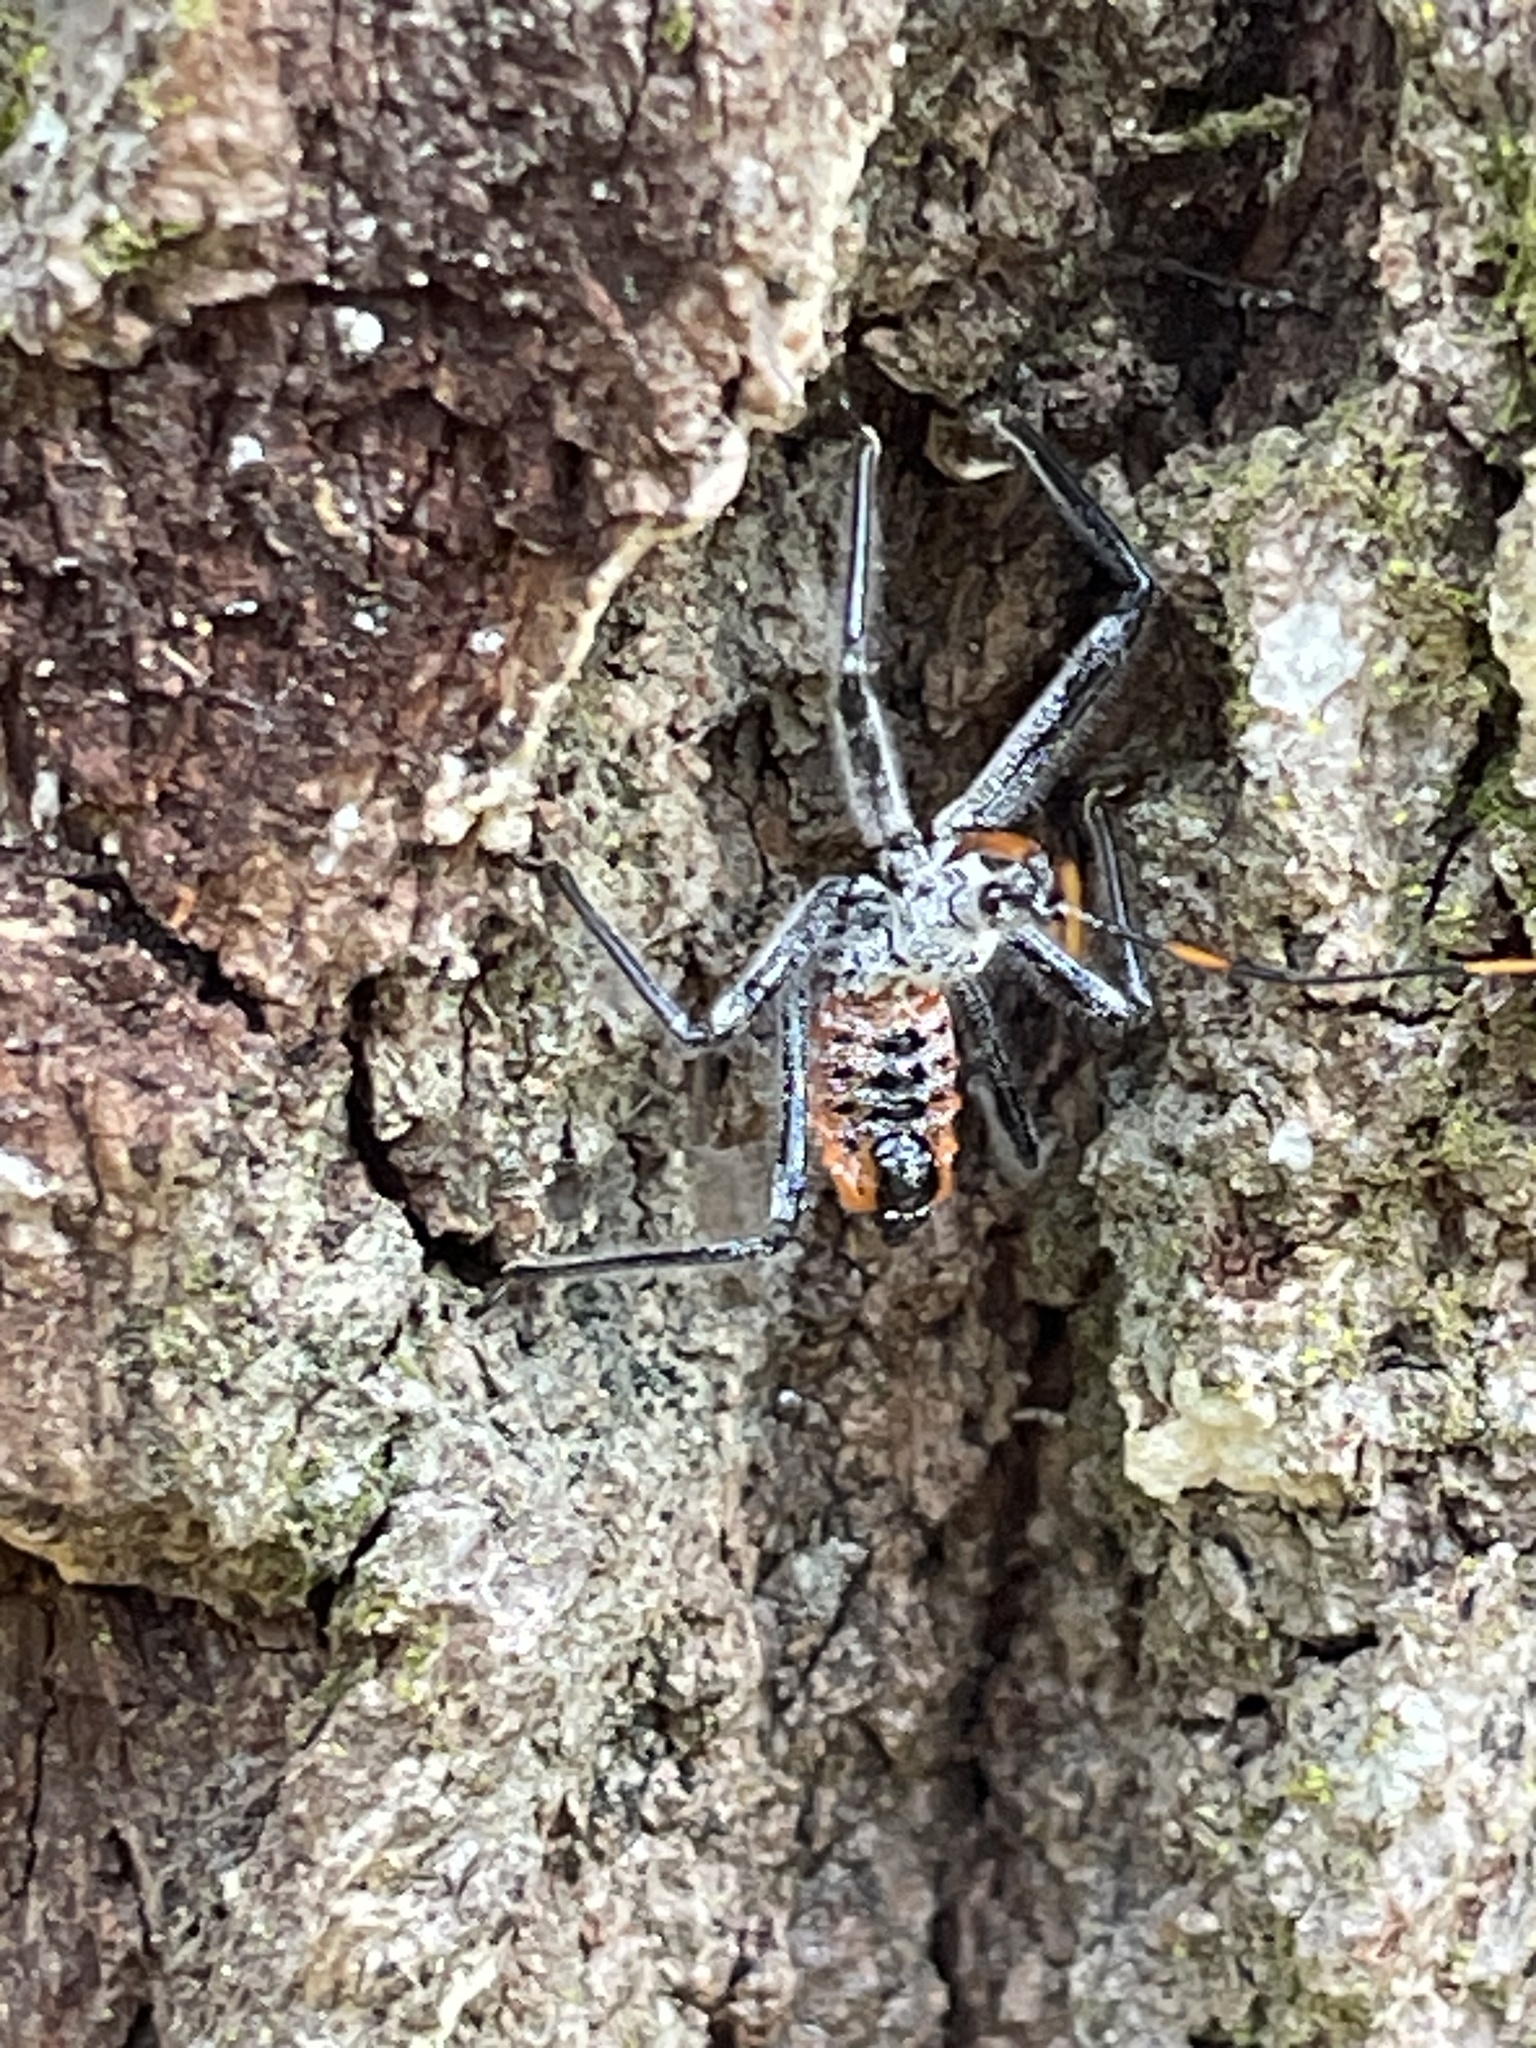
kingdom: Animalia
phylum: Arthropoda
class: Insecta
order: Hemiptera
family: Reduviidae
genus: Arilus
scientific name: Arilus cristatus
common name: North american wheel bug
